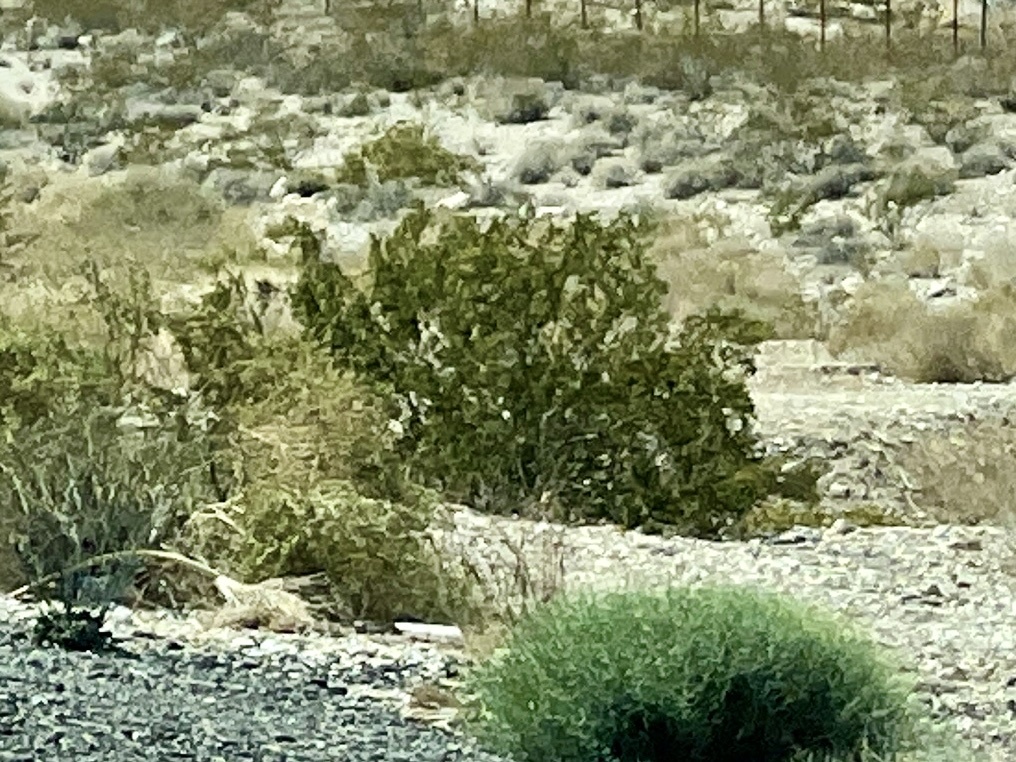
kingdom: Plantae
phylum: Tracheophyta
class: Magnoliopsida
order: Zygophyllales
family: Zygophyllaceae
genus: Larrea
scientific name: Larrea tridentata
